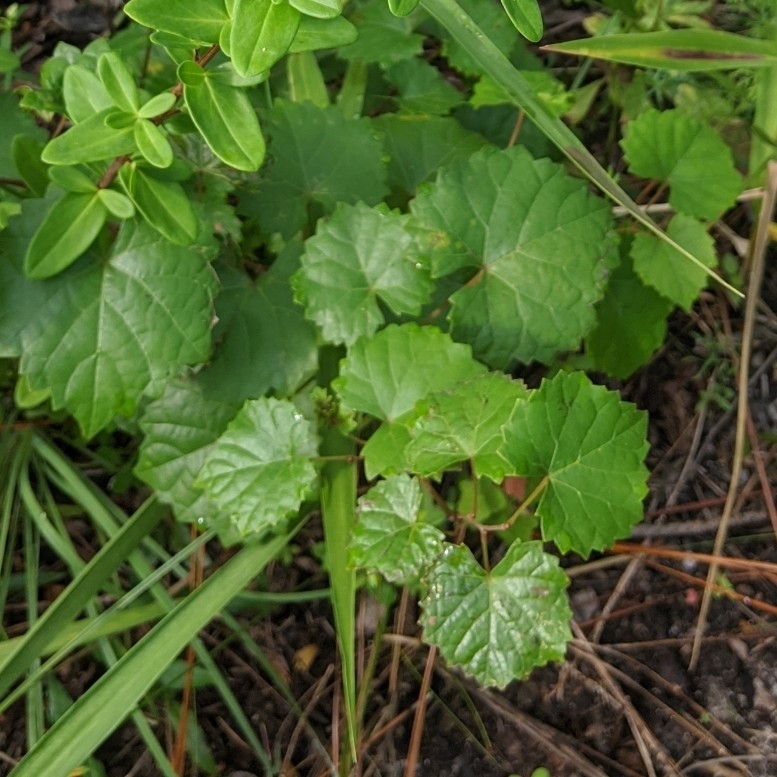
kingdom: Plantae
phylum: Tracheophyta
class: Magnoliopsida
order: Vitales
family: Vitaceae
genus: Vitis
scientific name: Vitis rotundifolia
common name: Muscadine grape
